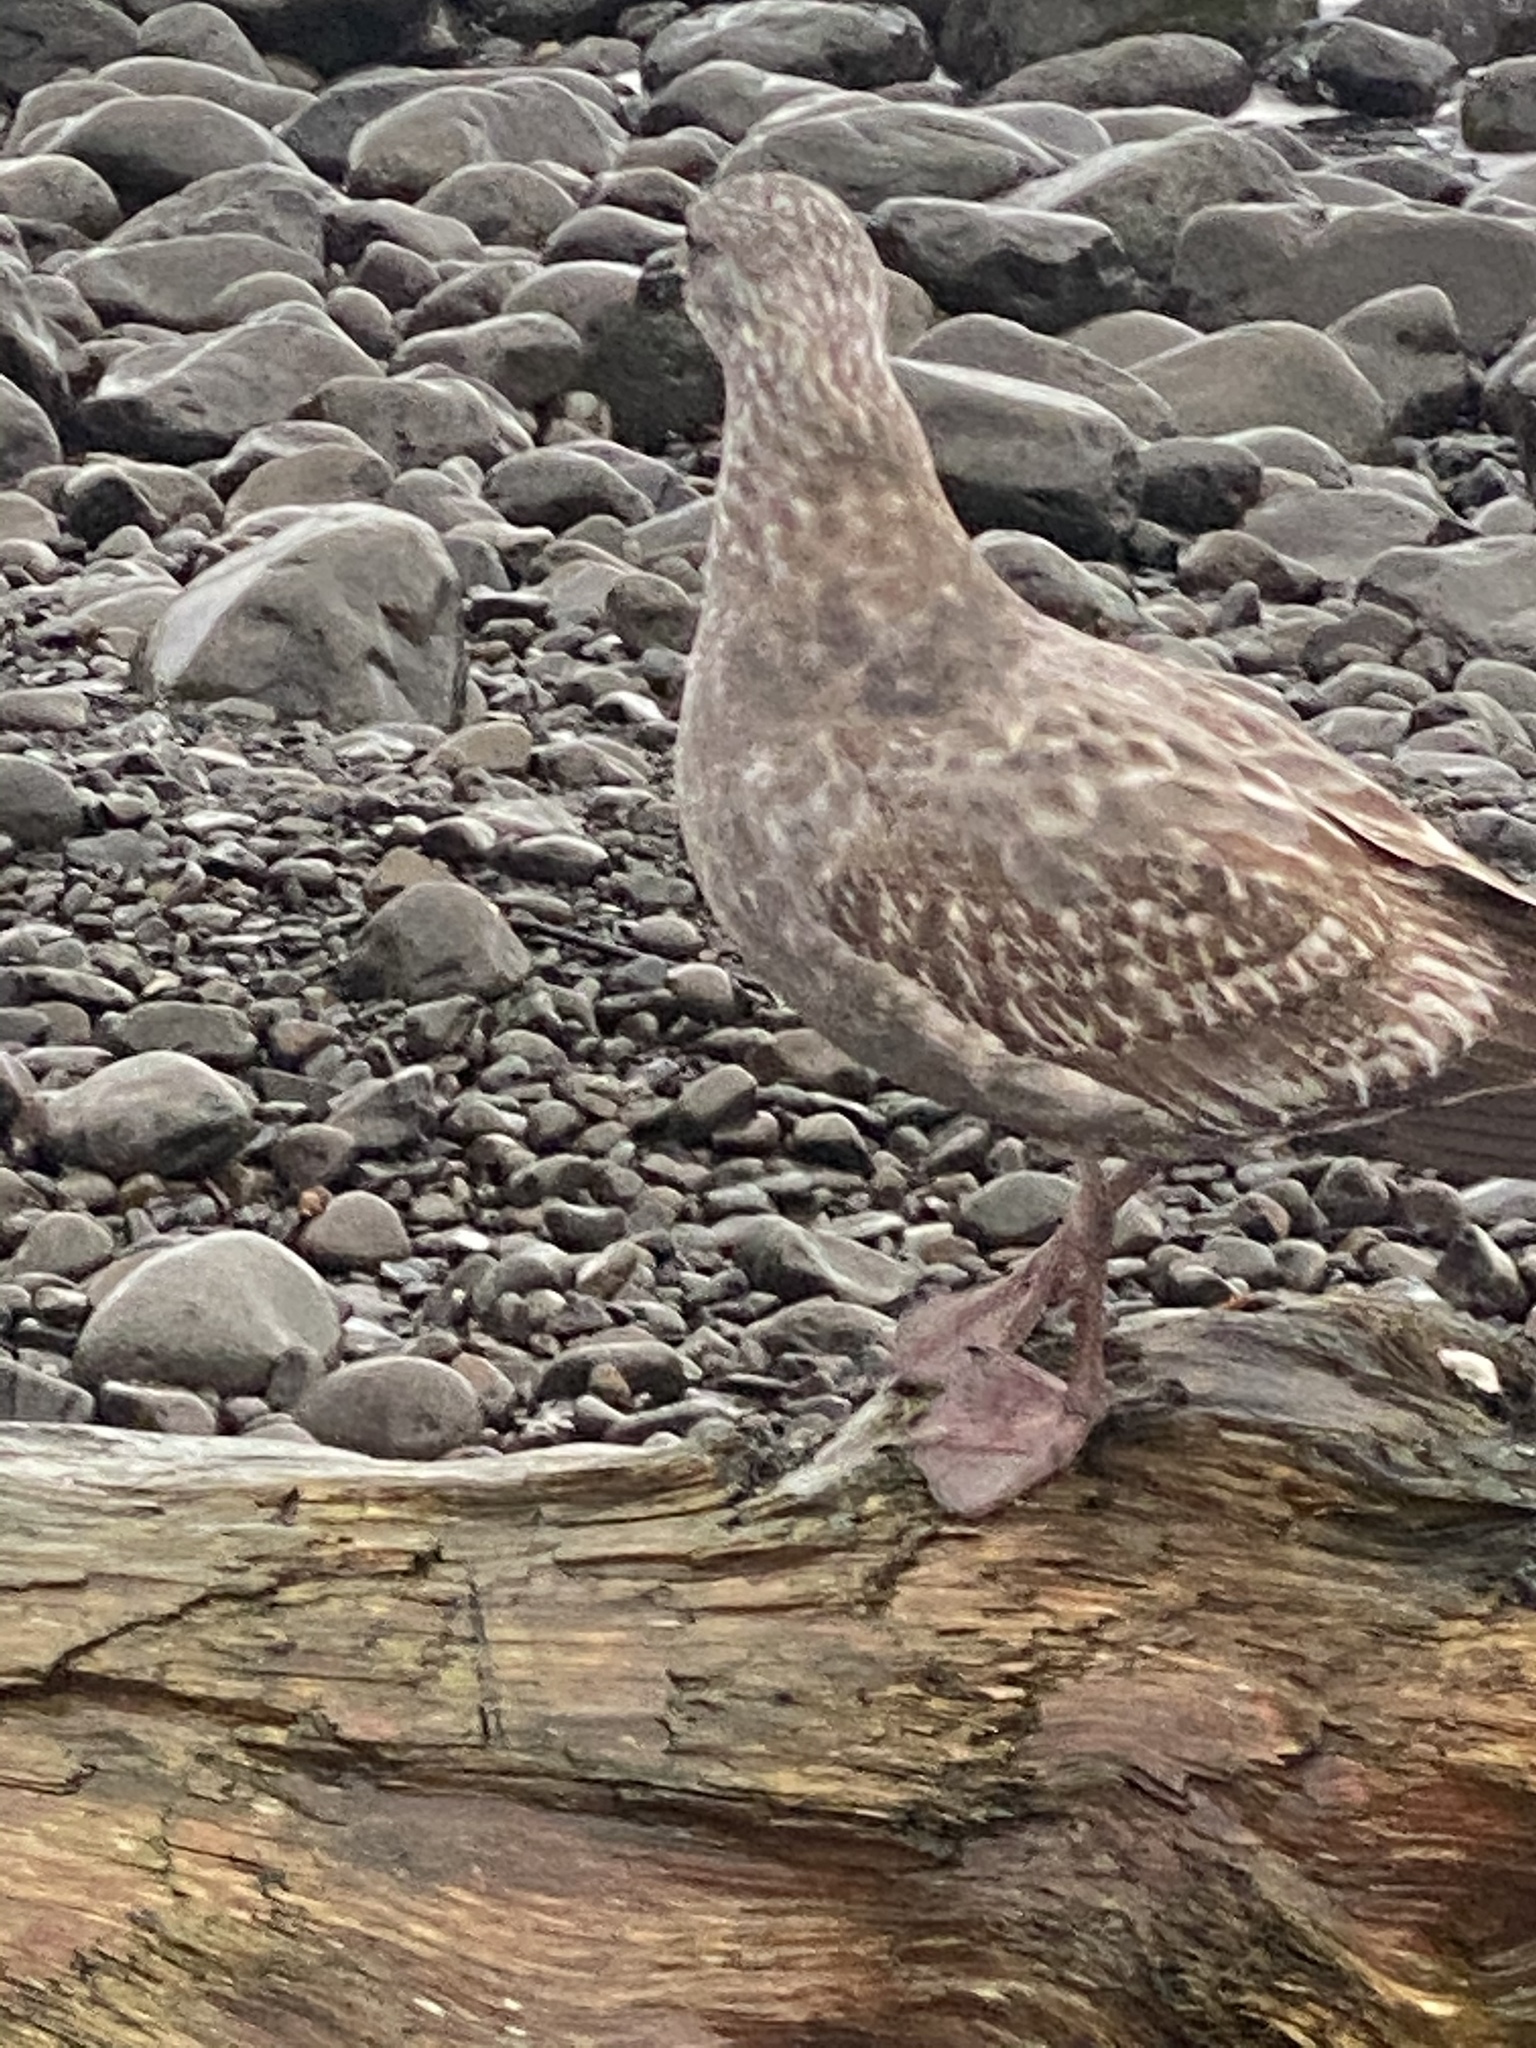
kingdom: Animalia
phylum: Chordata
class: Aves
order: Charadriiformes
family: Laridae
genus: Larus
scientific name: Larus occidentalis
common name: Western gull
